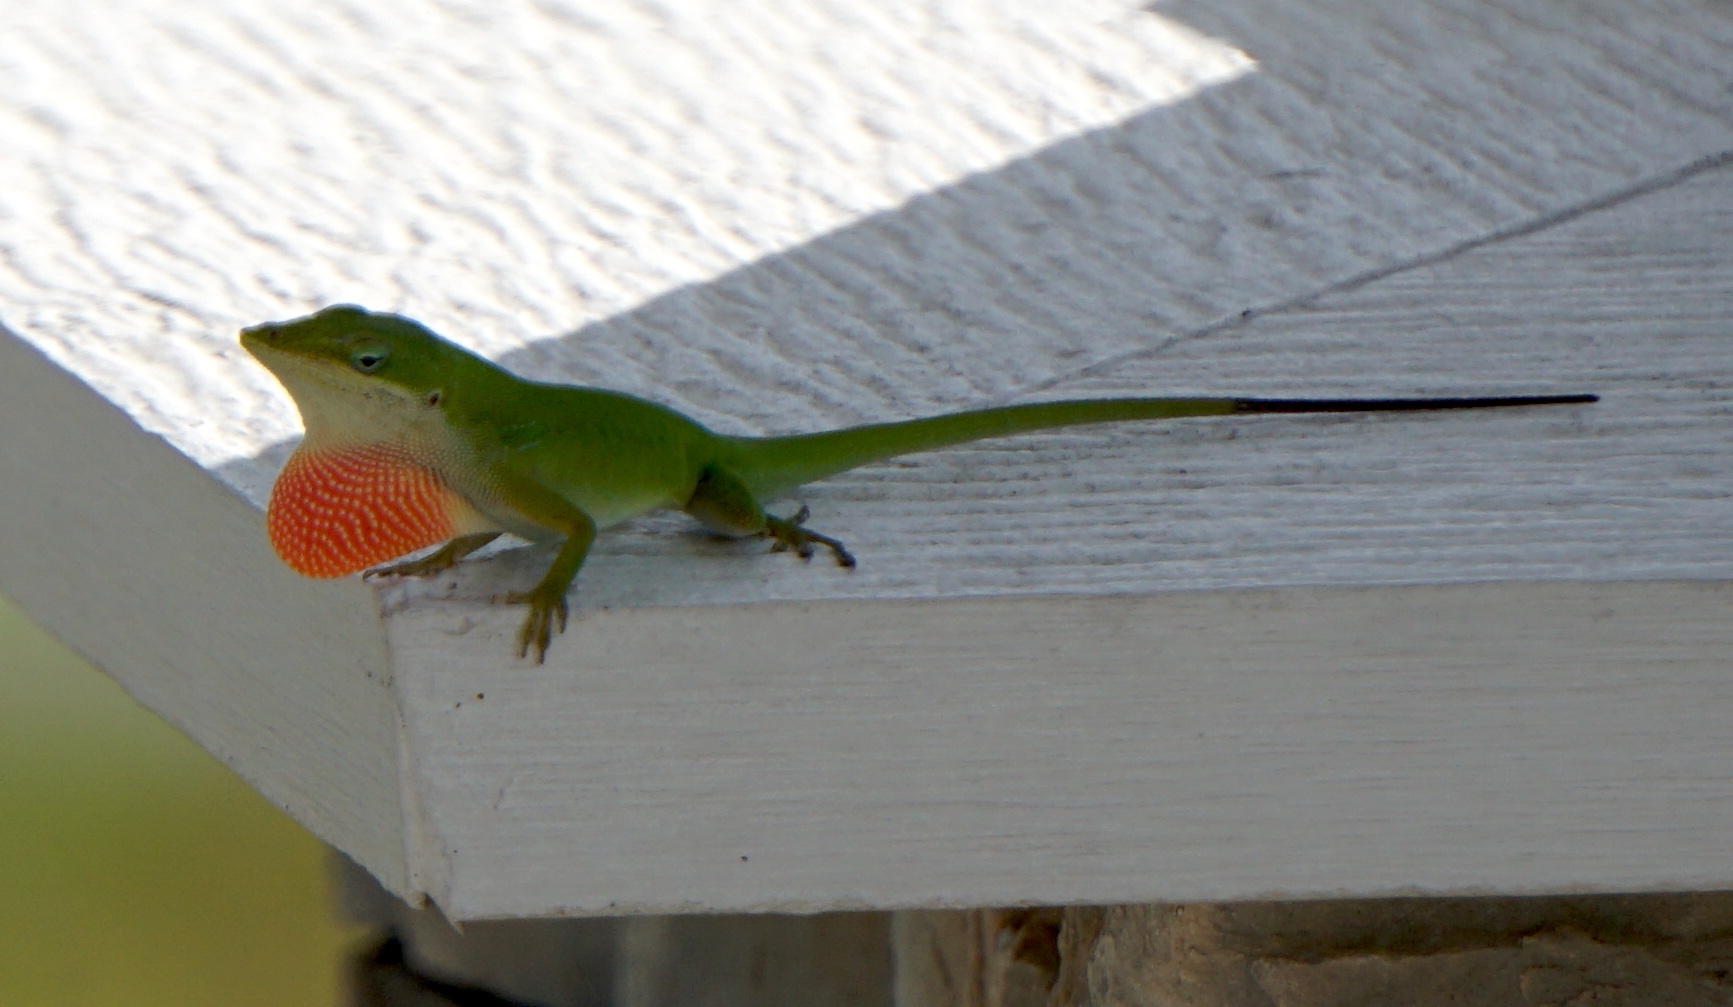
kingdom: Animalia
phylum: Chordata
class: Squamata
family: Dactyloidae
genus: Anolis
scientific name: Anolis carolinensis
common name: Green anole
